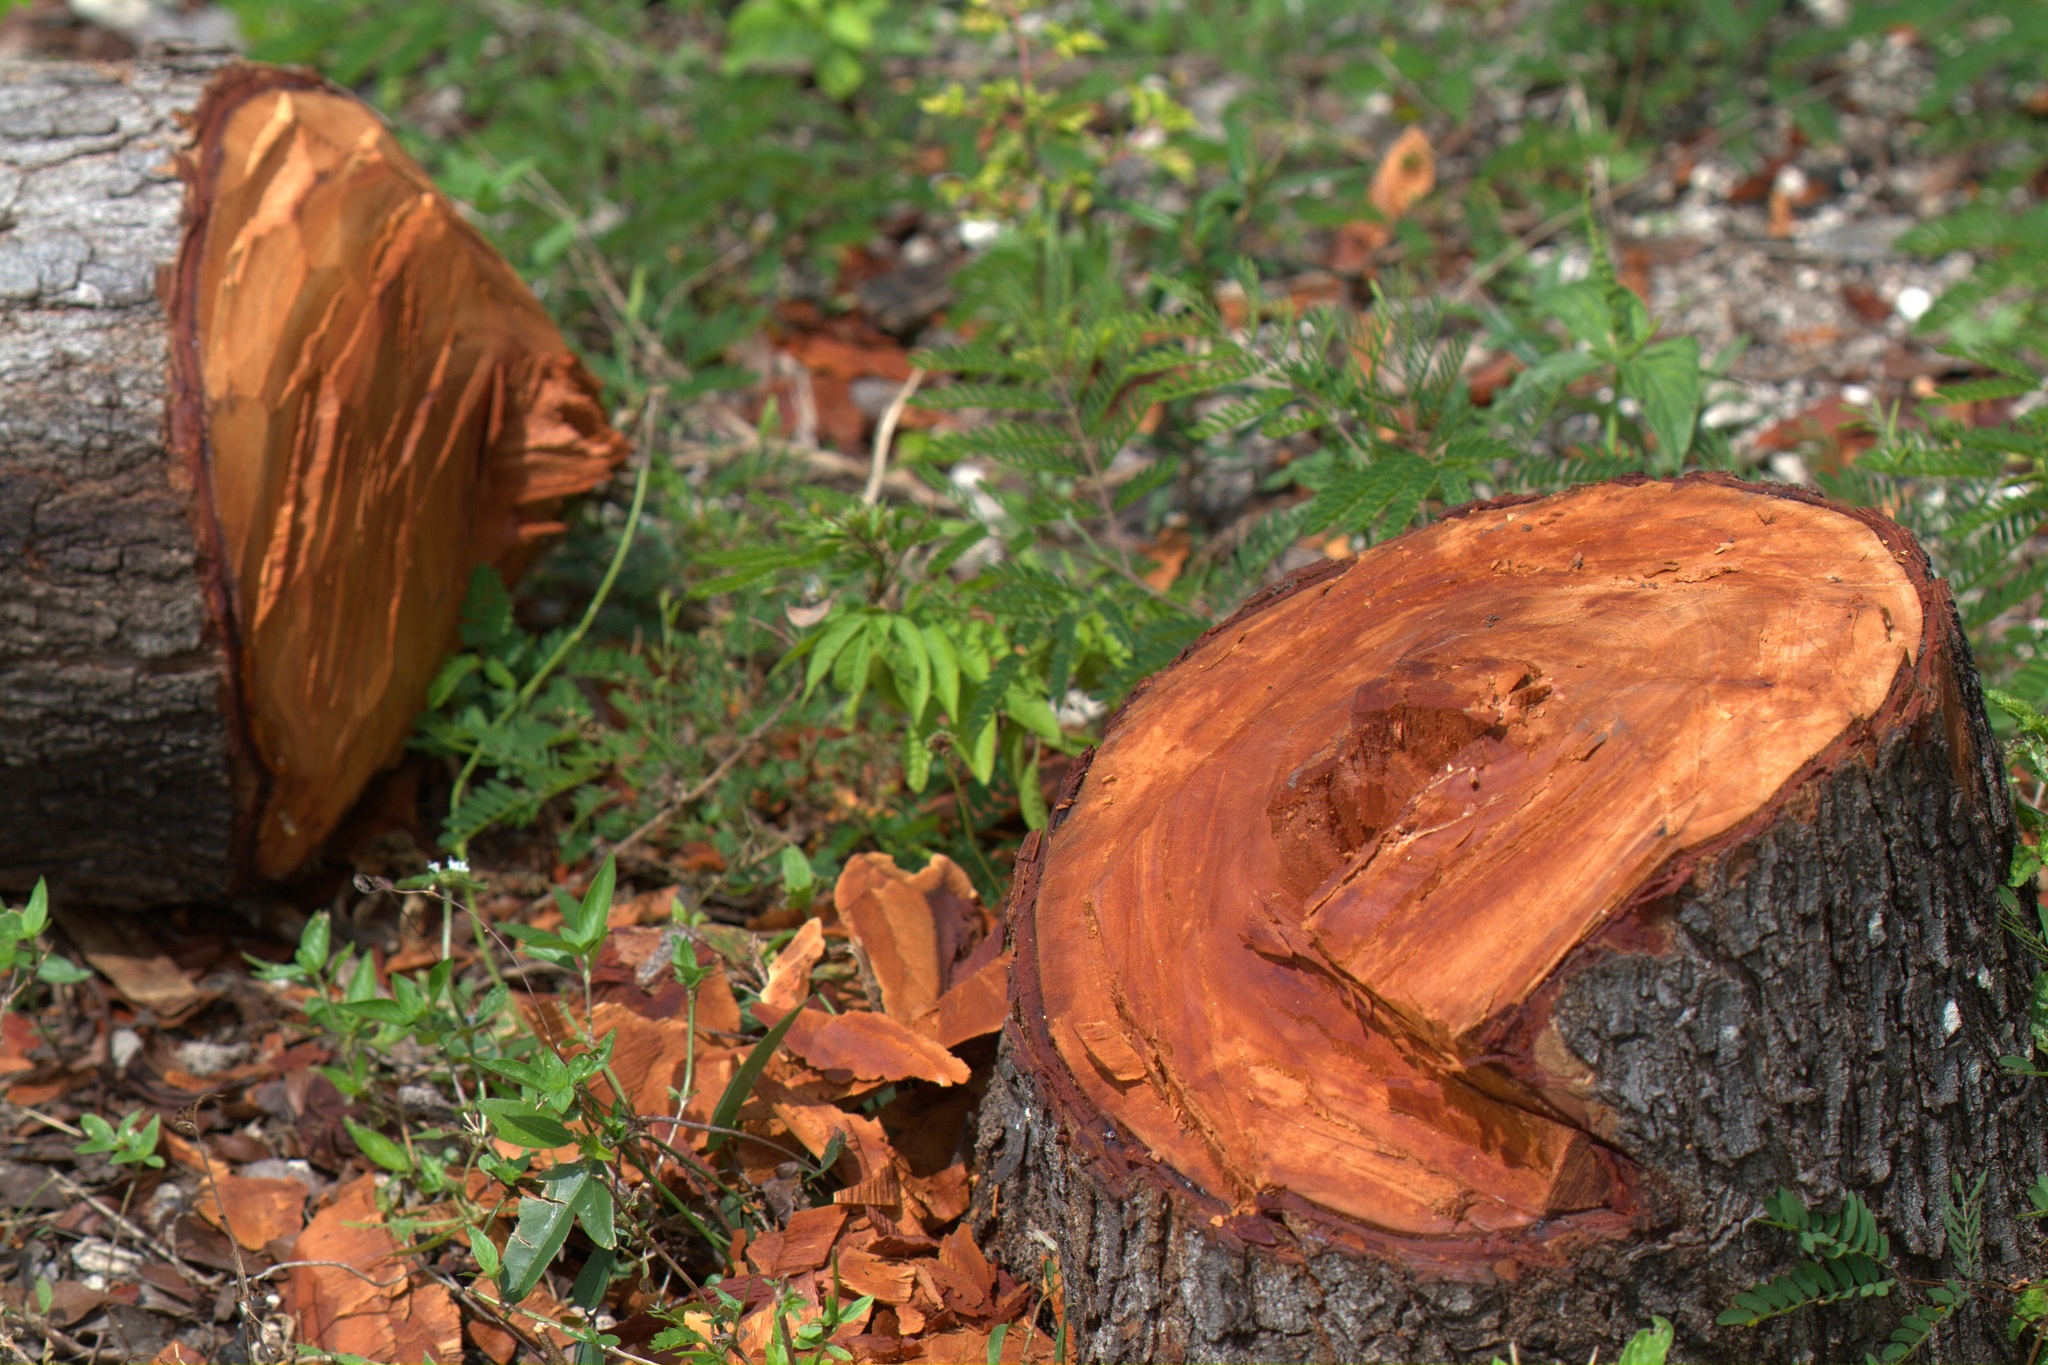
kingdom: Plantae
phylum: Tracheophyta
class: Magnoliopsida
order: Sapindales
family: Meliaceae
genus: Swietenia
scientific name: Swietenia mahagoni
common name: West indian mahogany
